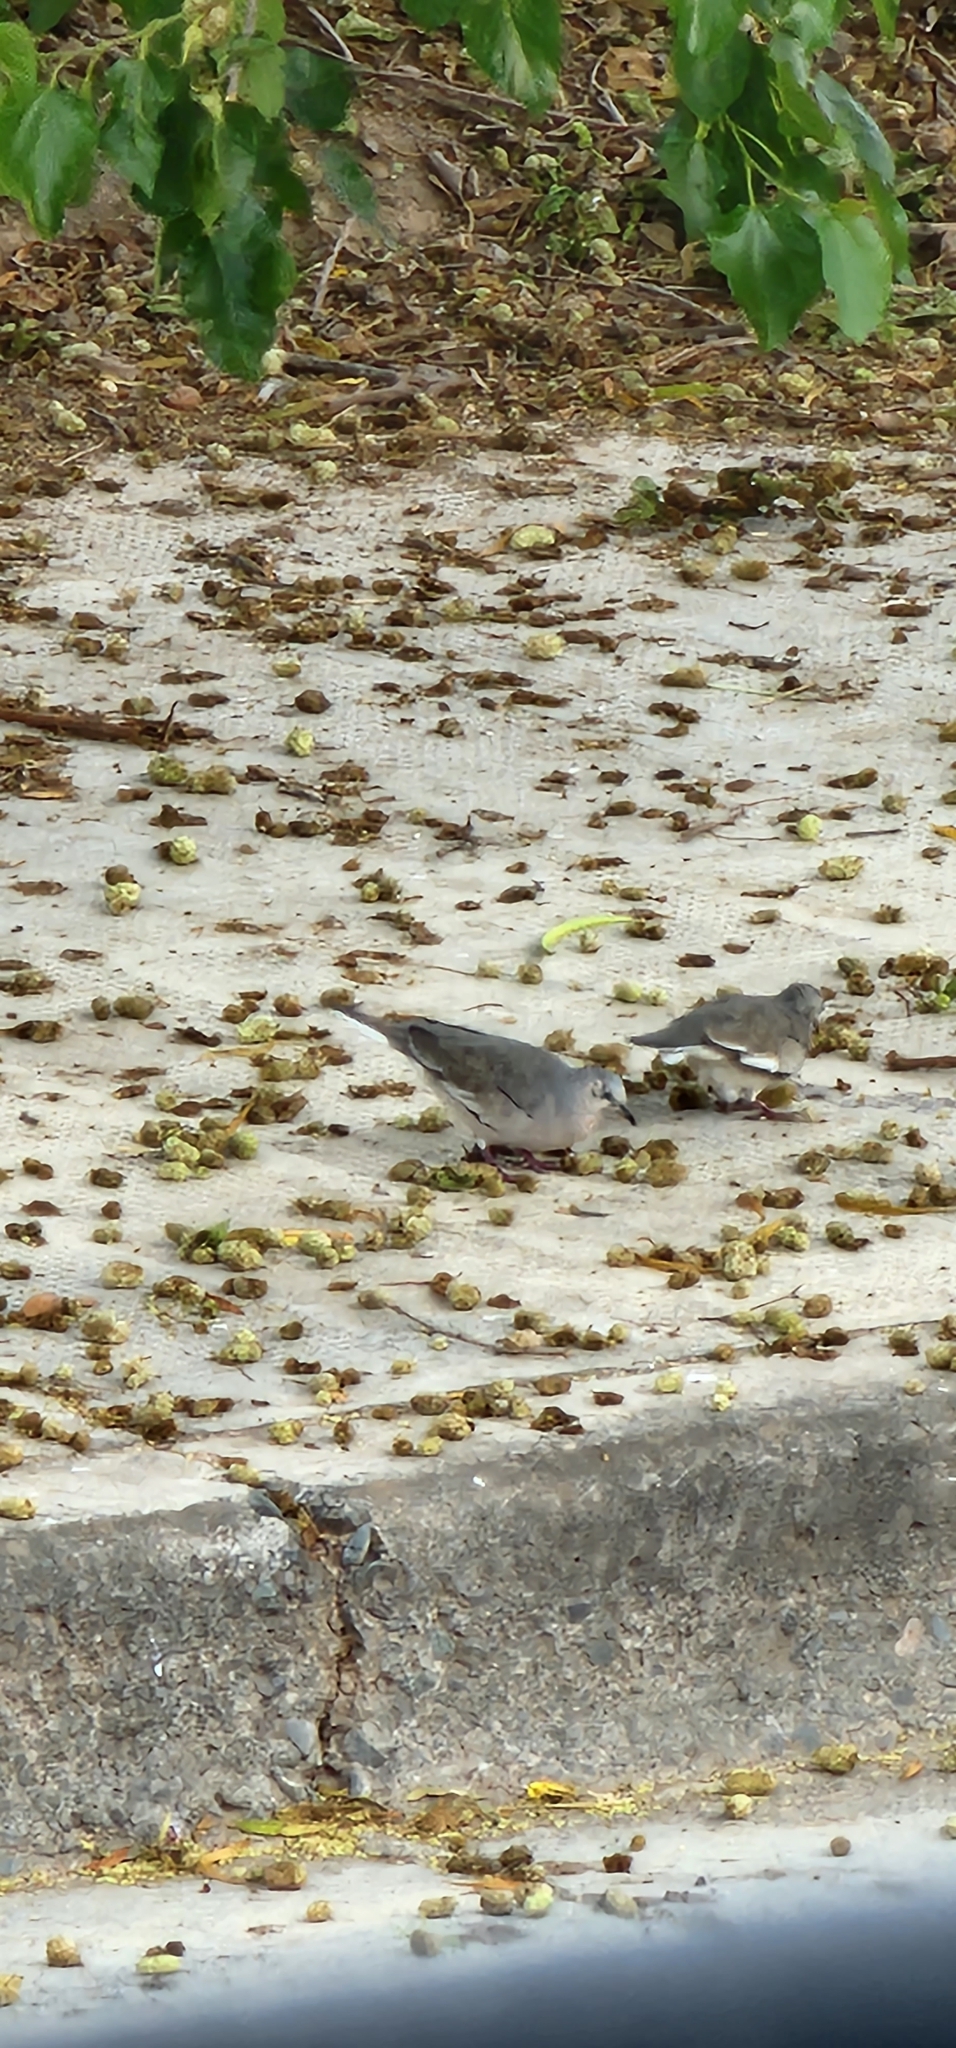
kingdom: Animalia
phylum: Chordata
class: Aves
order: Columbiformes
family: Columbidae
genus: Columbina
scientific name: Columbina picui
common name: Picui ground dove
